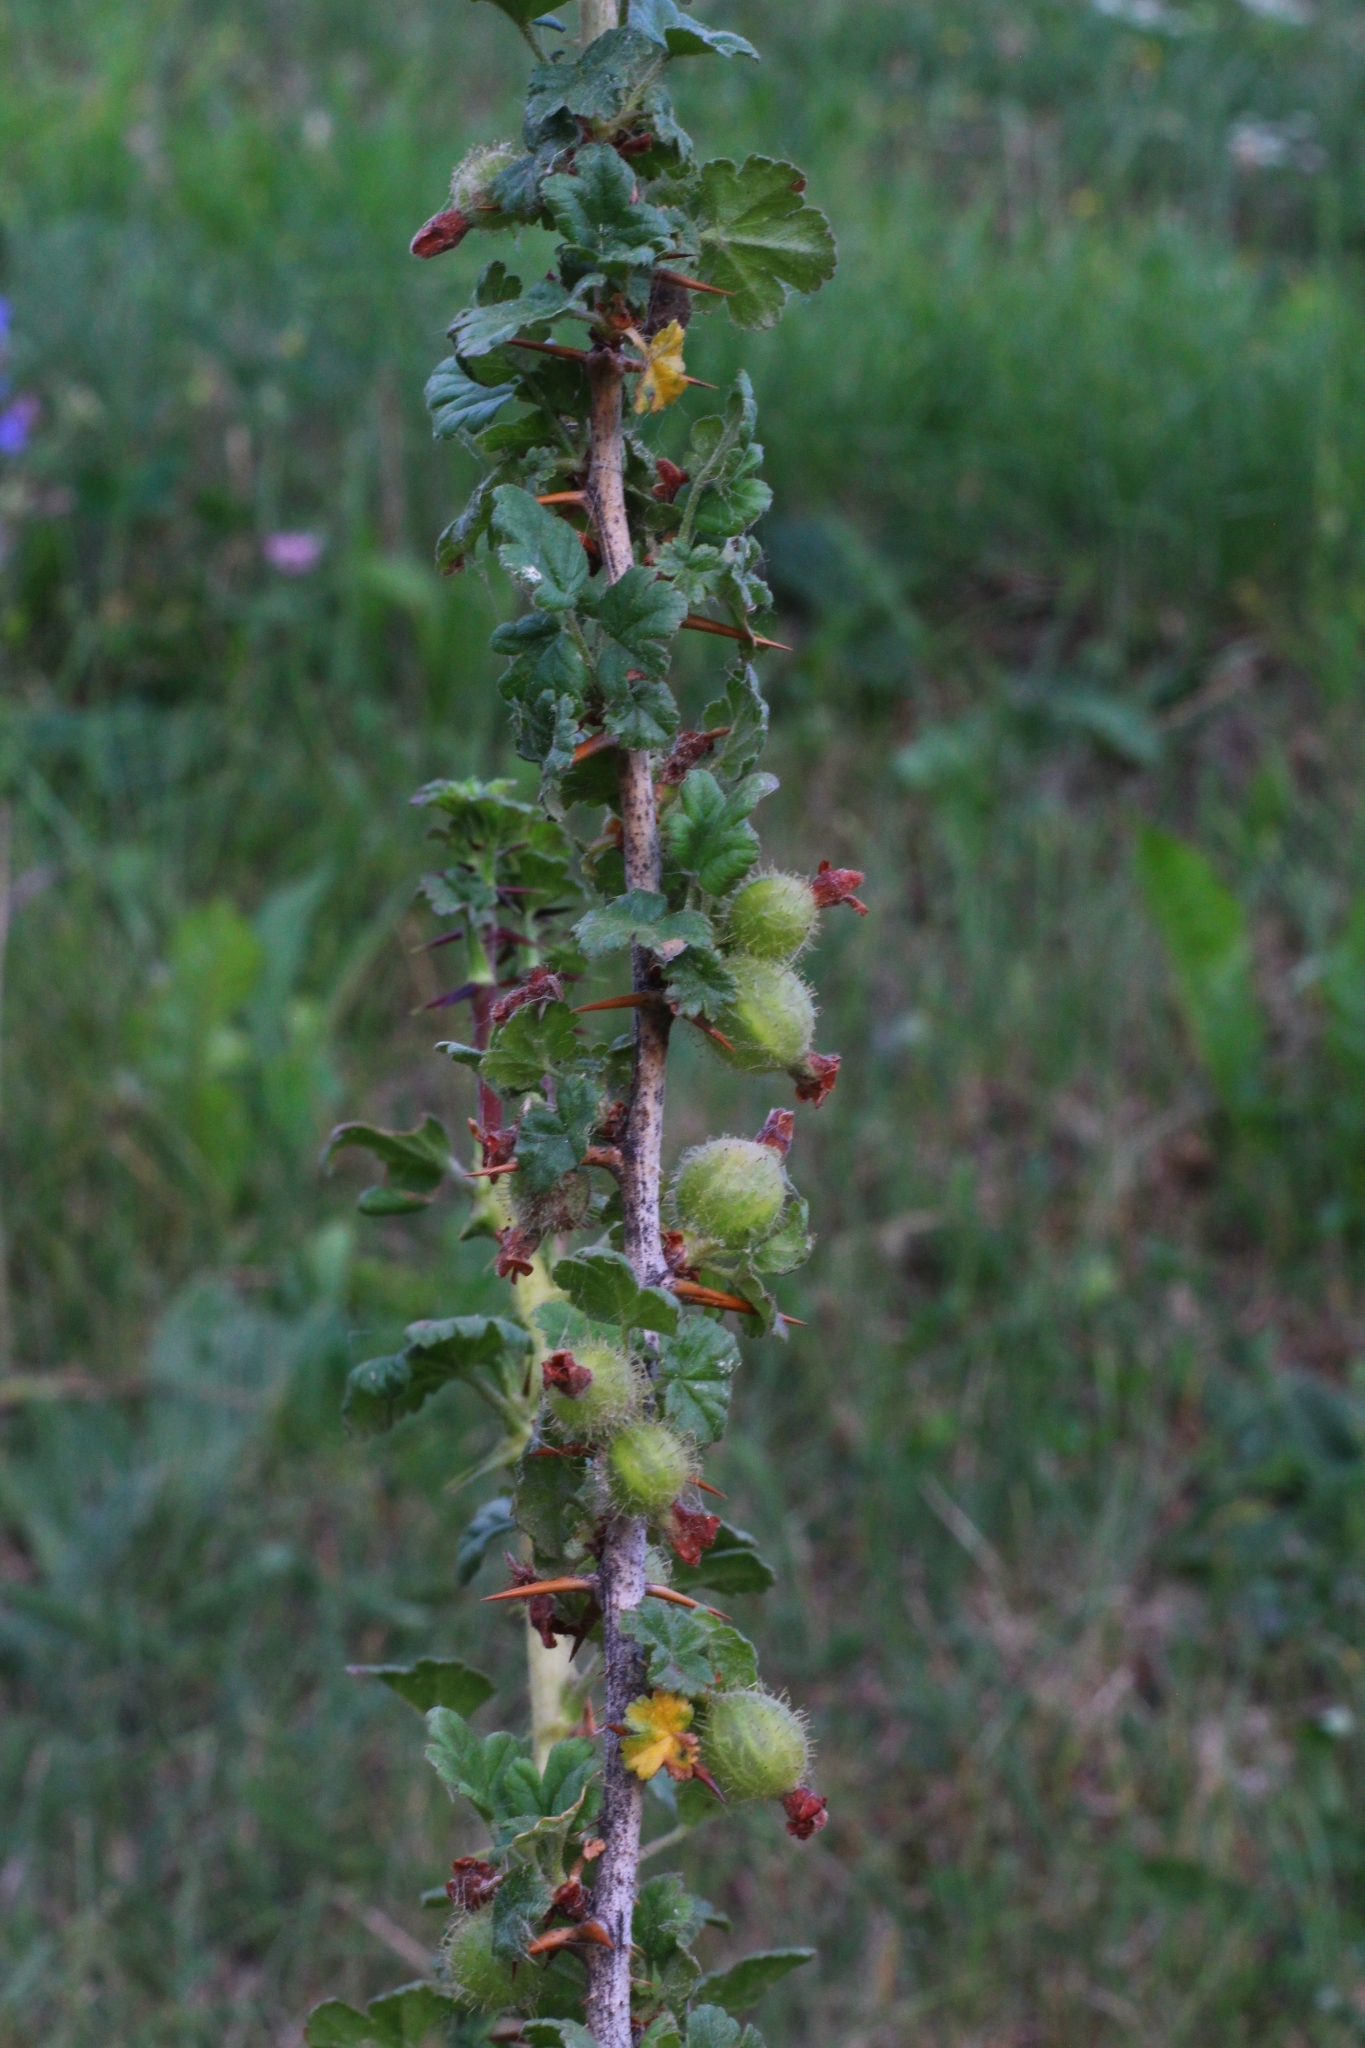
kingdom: Plantae
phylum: Tracheophyta
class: Magnoliopsida
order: Saxifragales
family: Grossulariaceae
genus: Ribes
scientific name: Ribes uva-crispa
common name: Gooseberry
